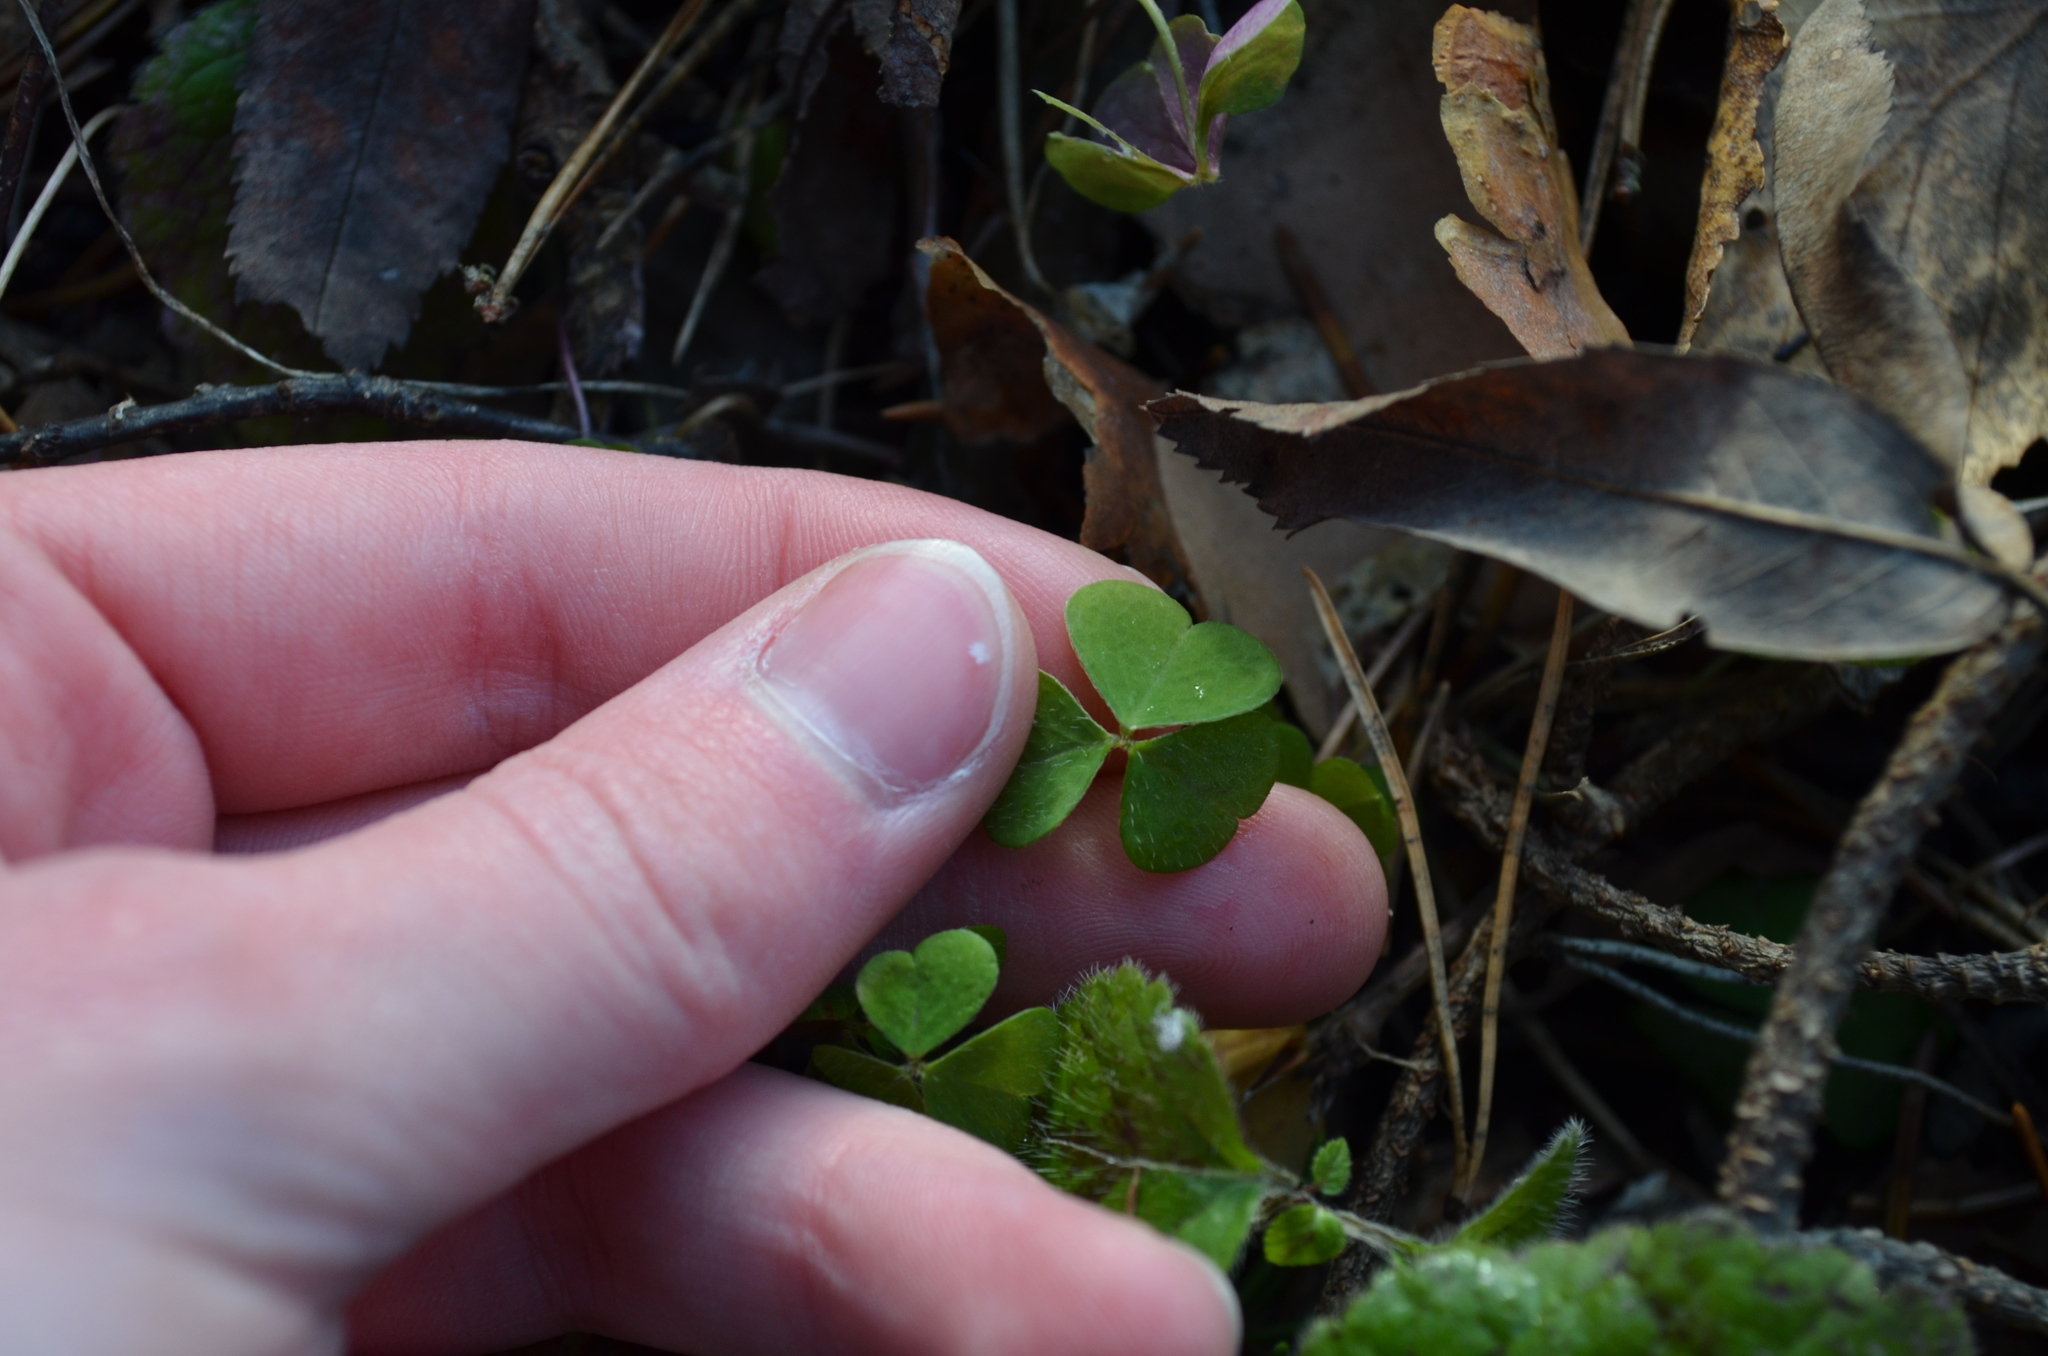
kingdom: Plantae
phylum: Tracheophyta
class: Magnoliopsida
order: Oxalidales
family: Oxalidaceae
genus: Oxalis
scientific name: Oxalis acetosella
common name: Wood-sorrel
